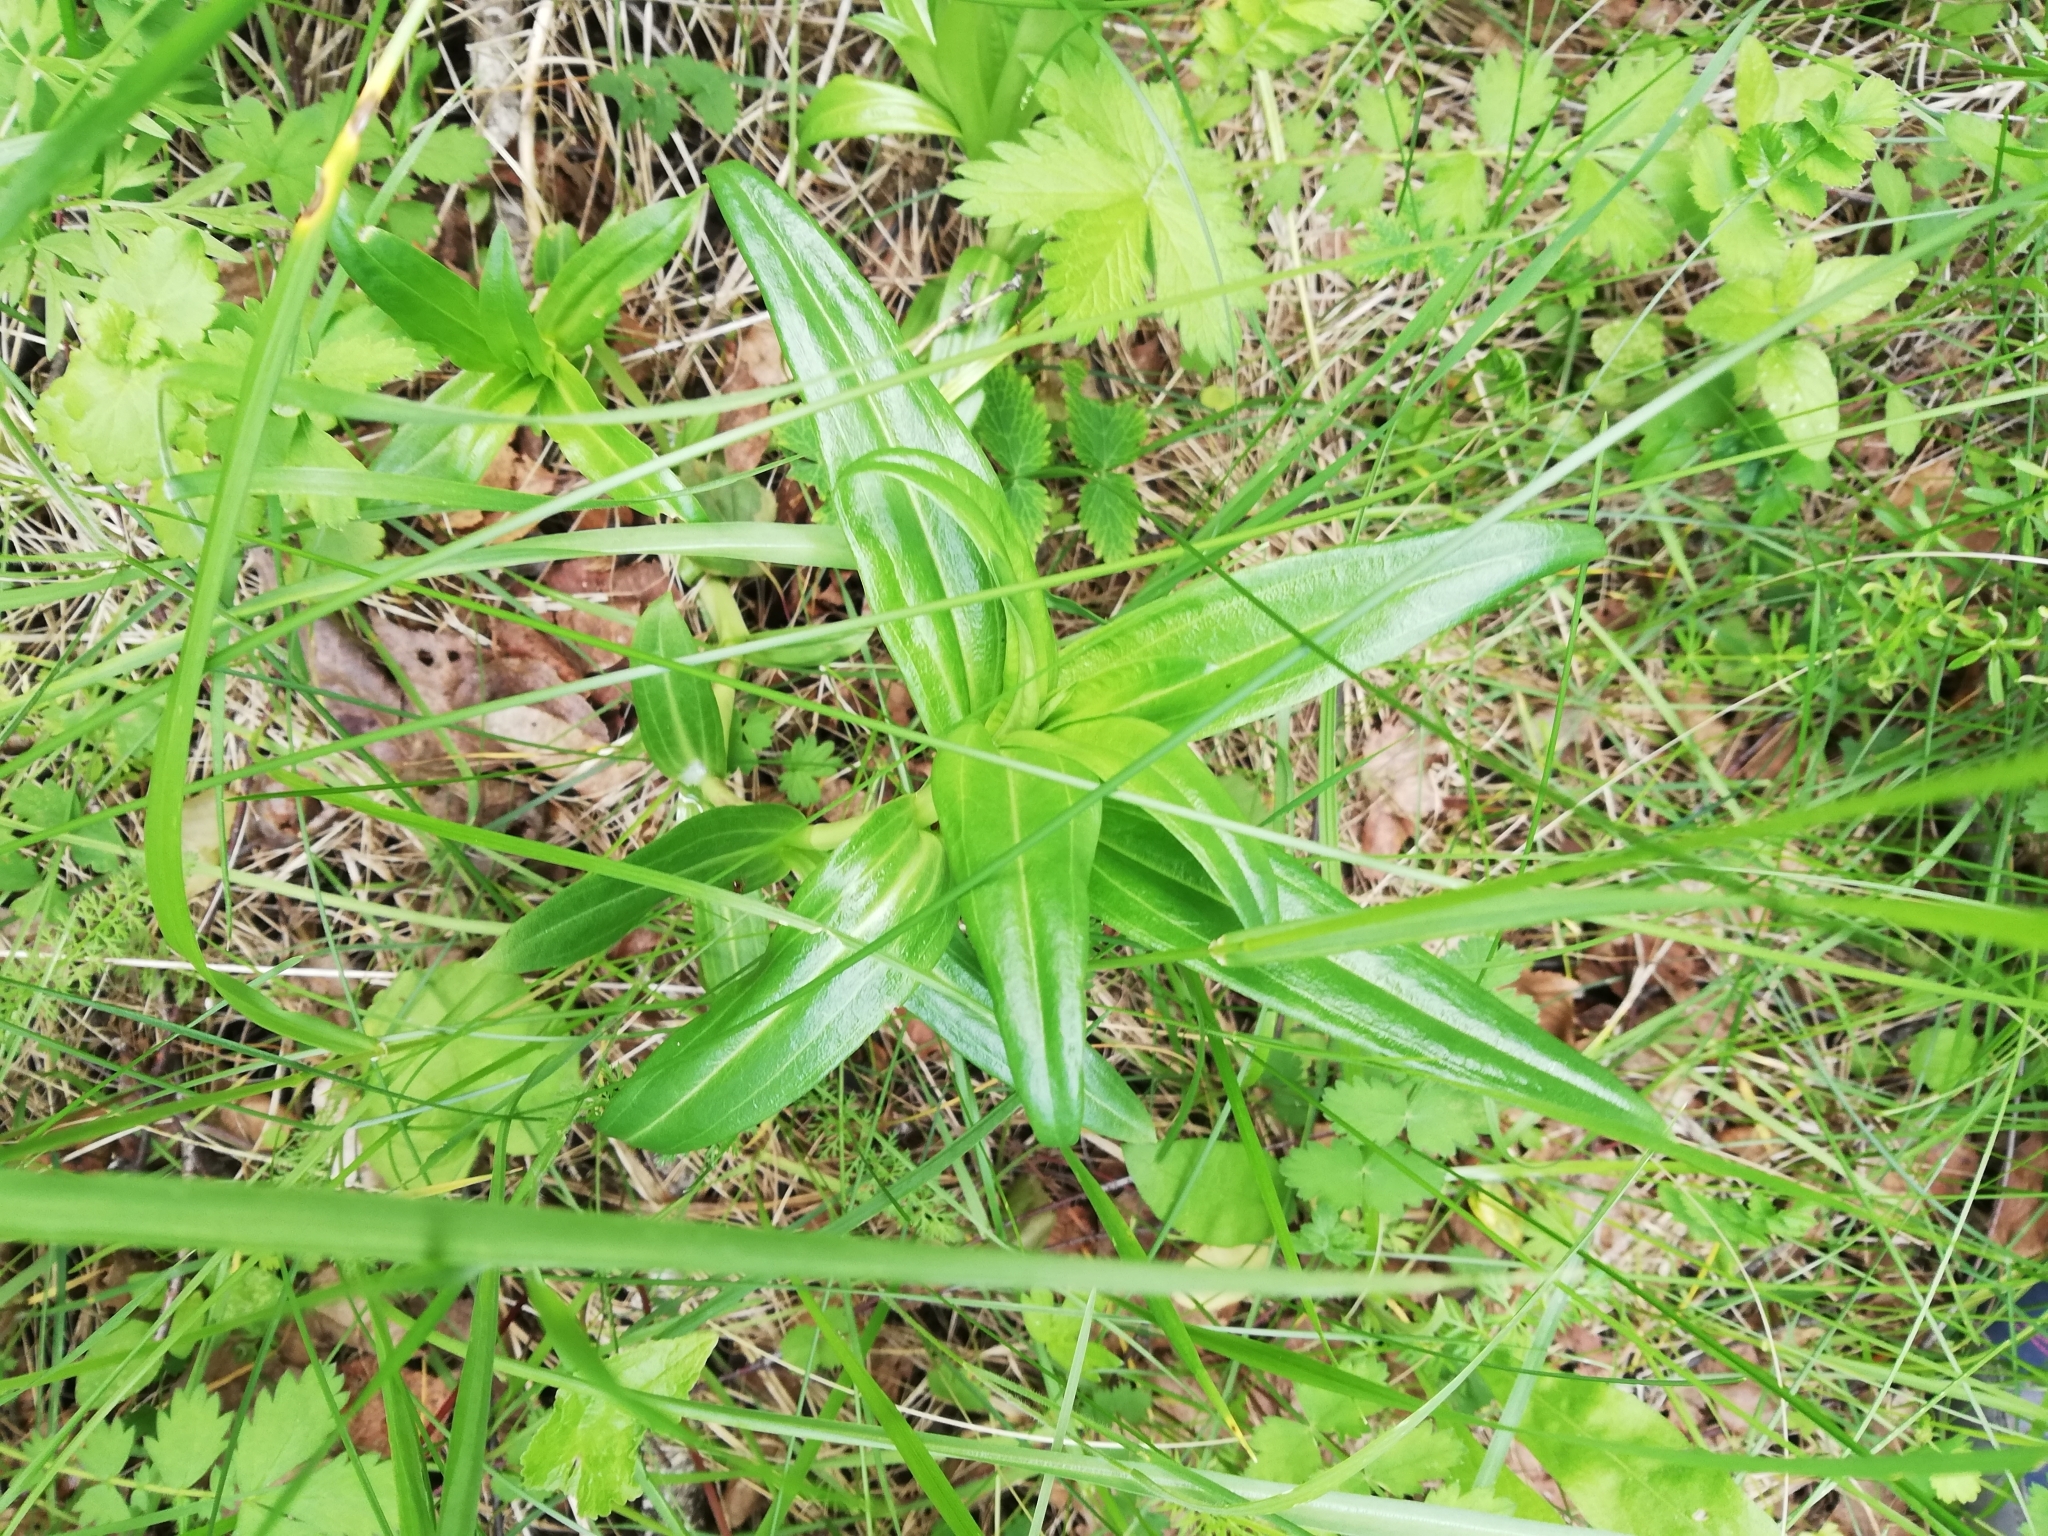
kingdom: Plantae
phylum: Tracheophyta
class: Magnoliopsida
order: Gentianales
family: Gentianaceae
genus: Gentiana
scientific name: Gentiana cruciata
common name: Cross gentian
